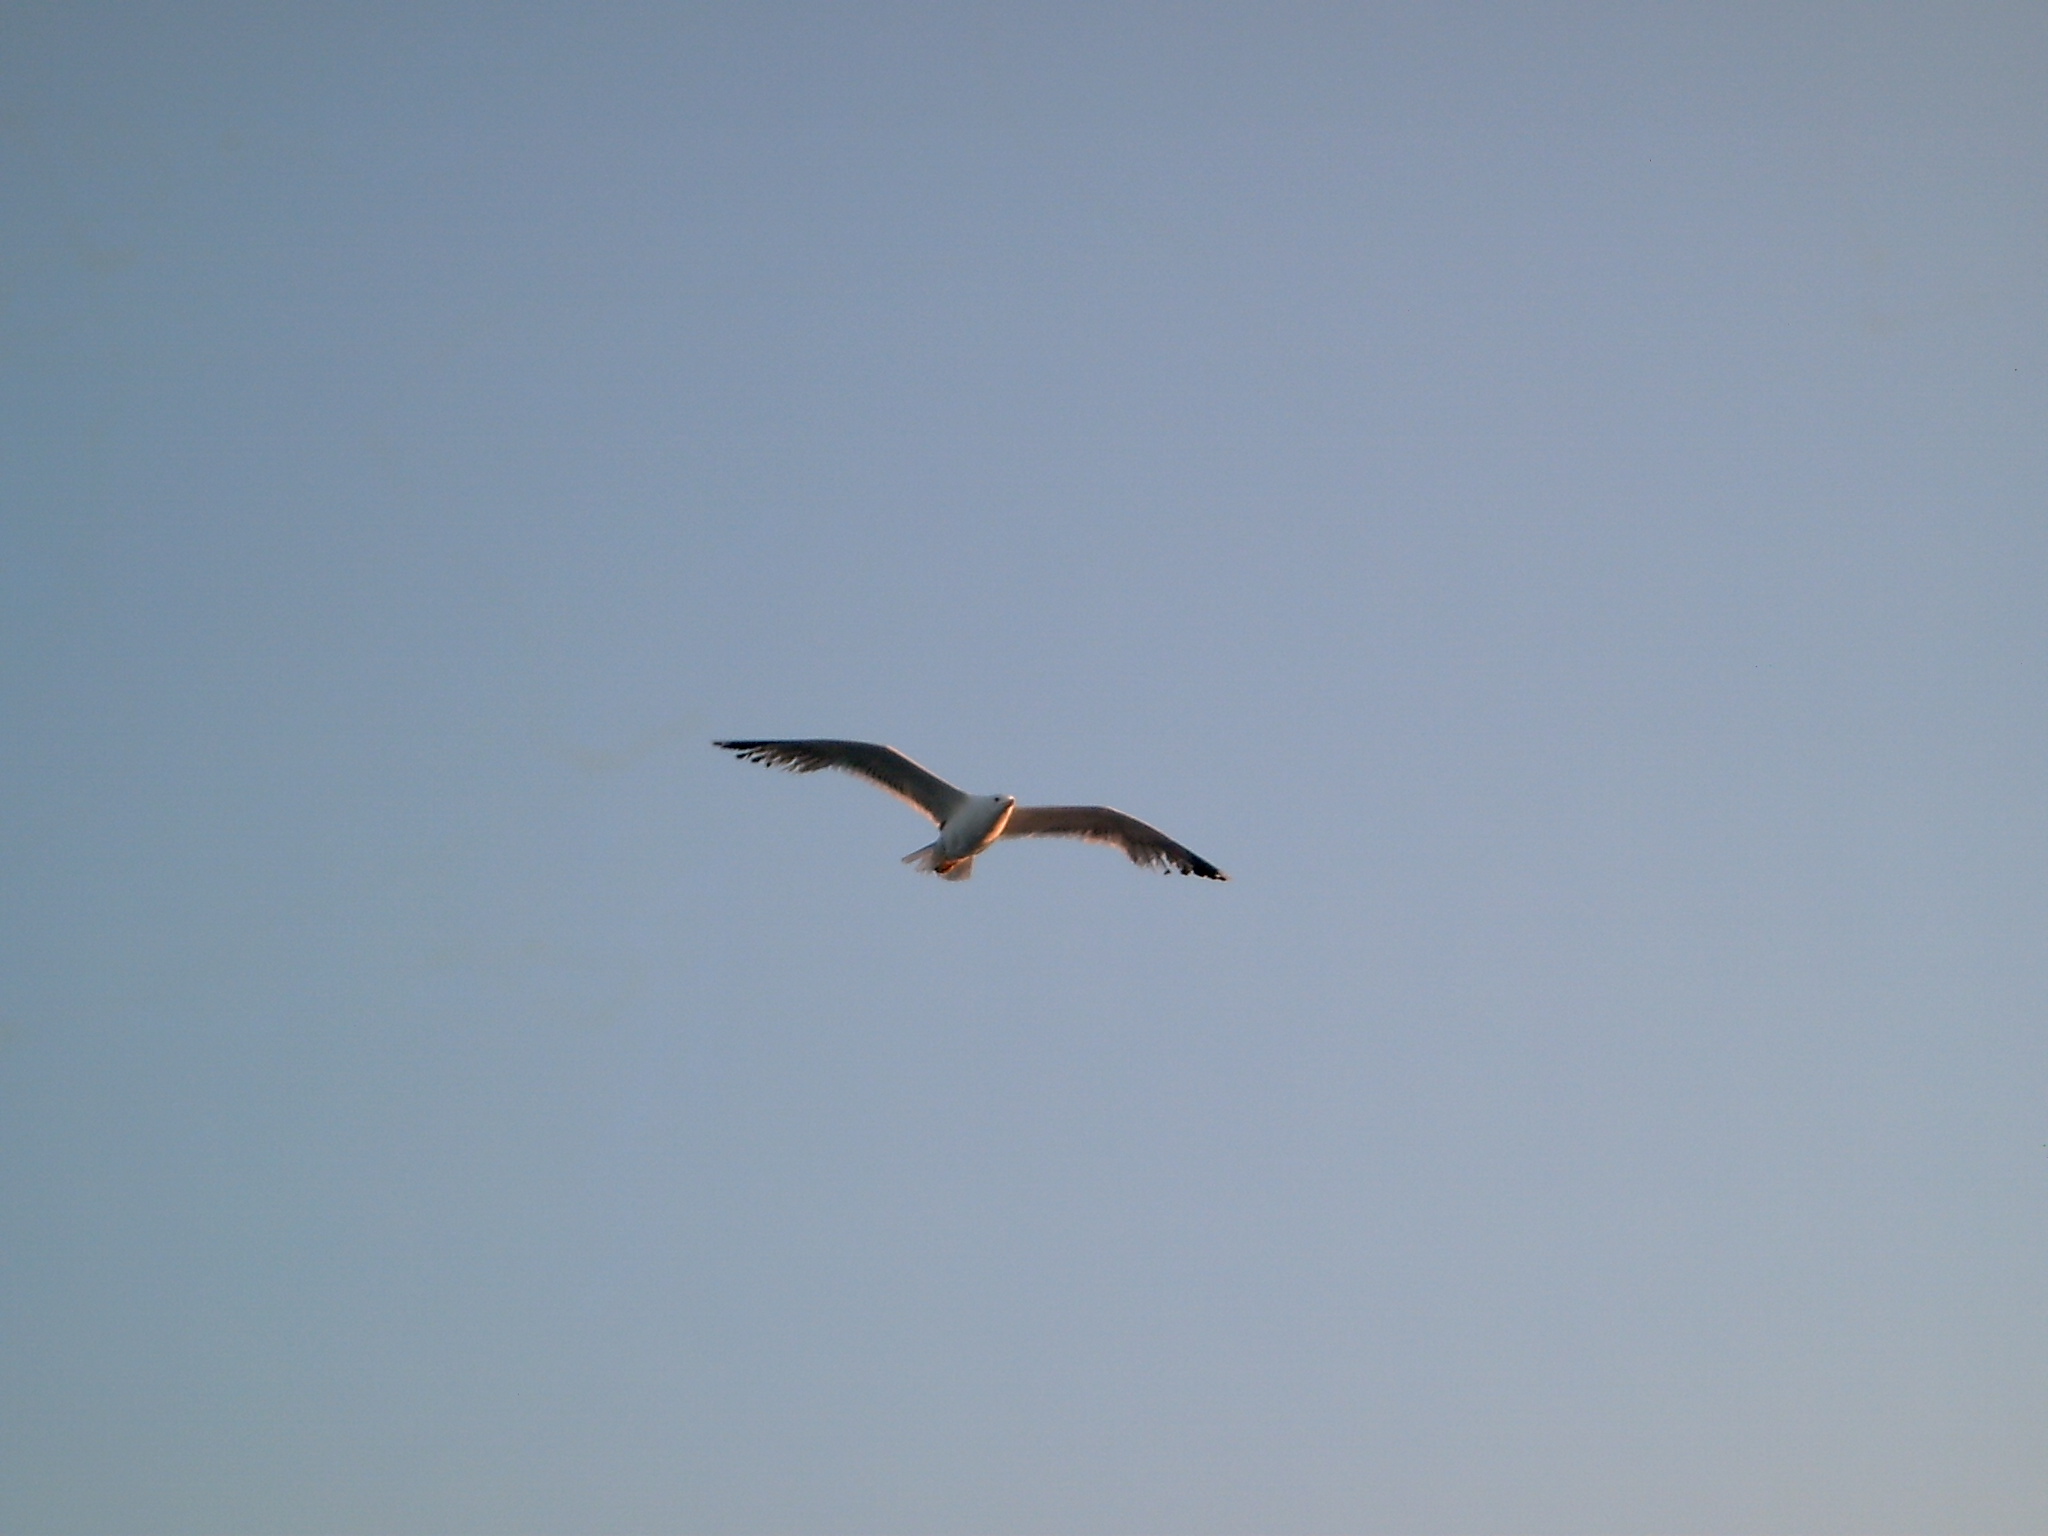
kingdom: Animalia
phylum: Chordata
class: Aves
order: Charadriiformes
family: Laridae
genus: Larus
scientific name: Larus michahellis
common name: Yellow-legged gull
